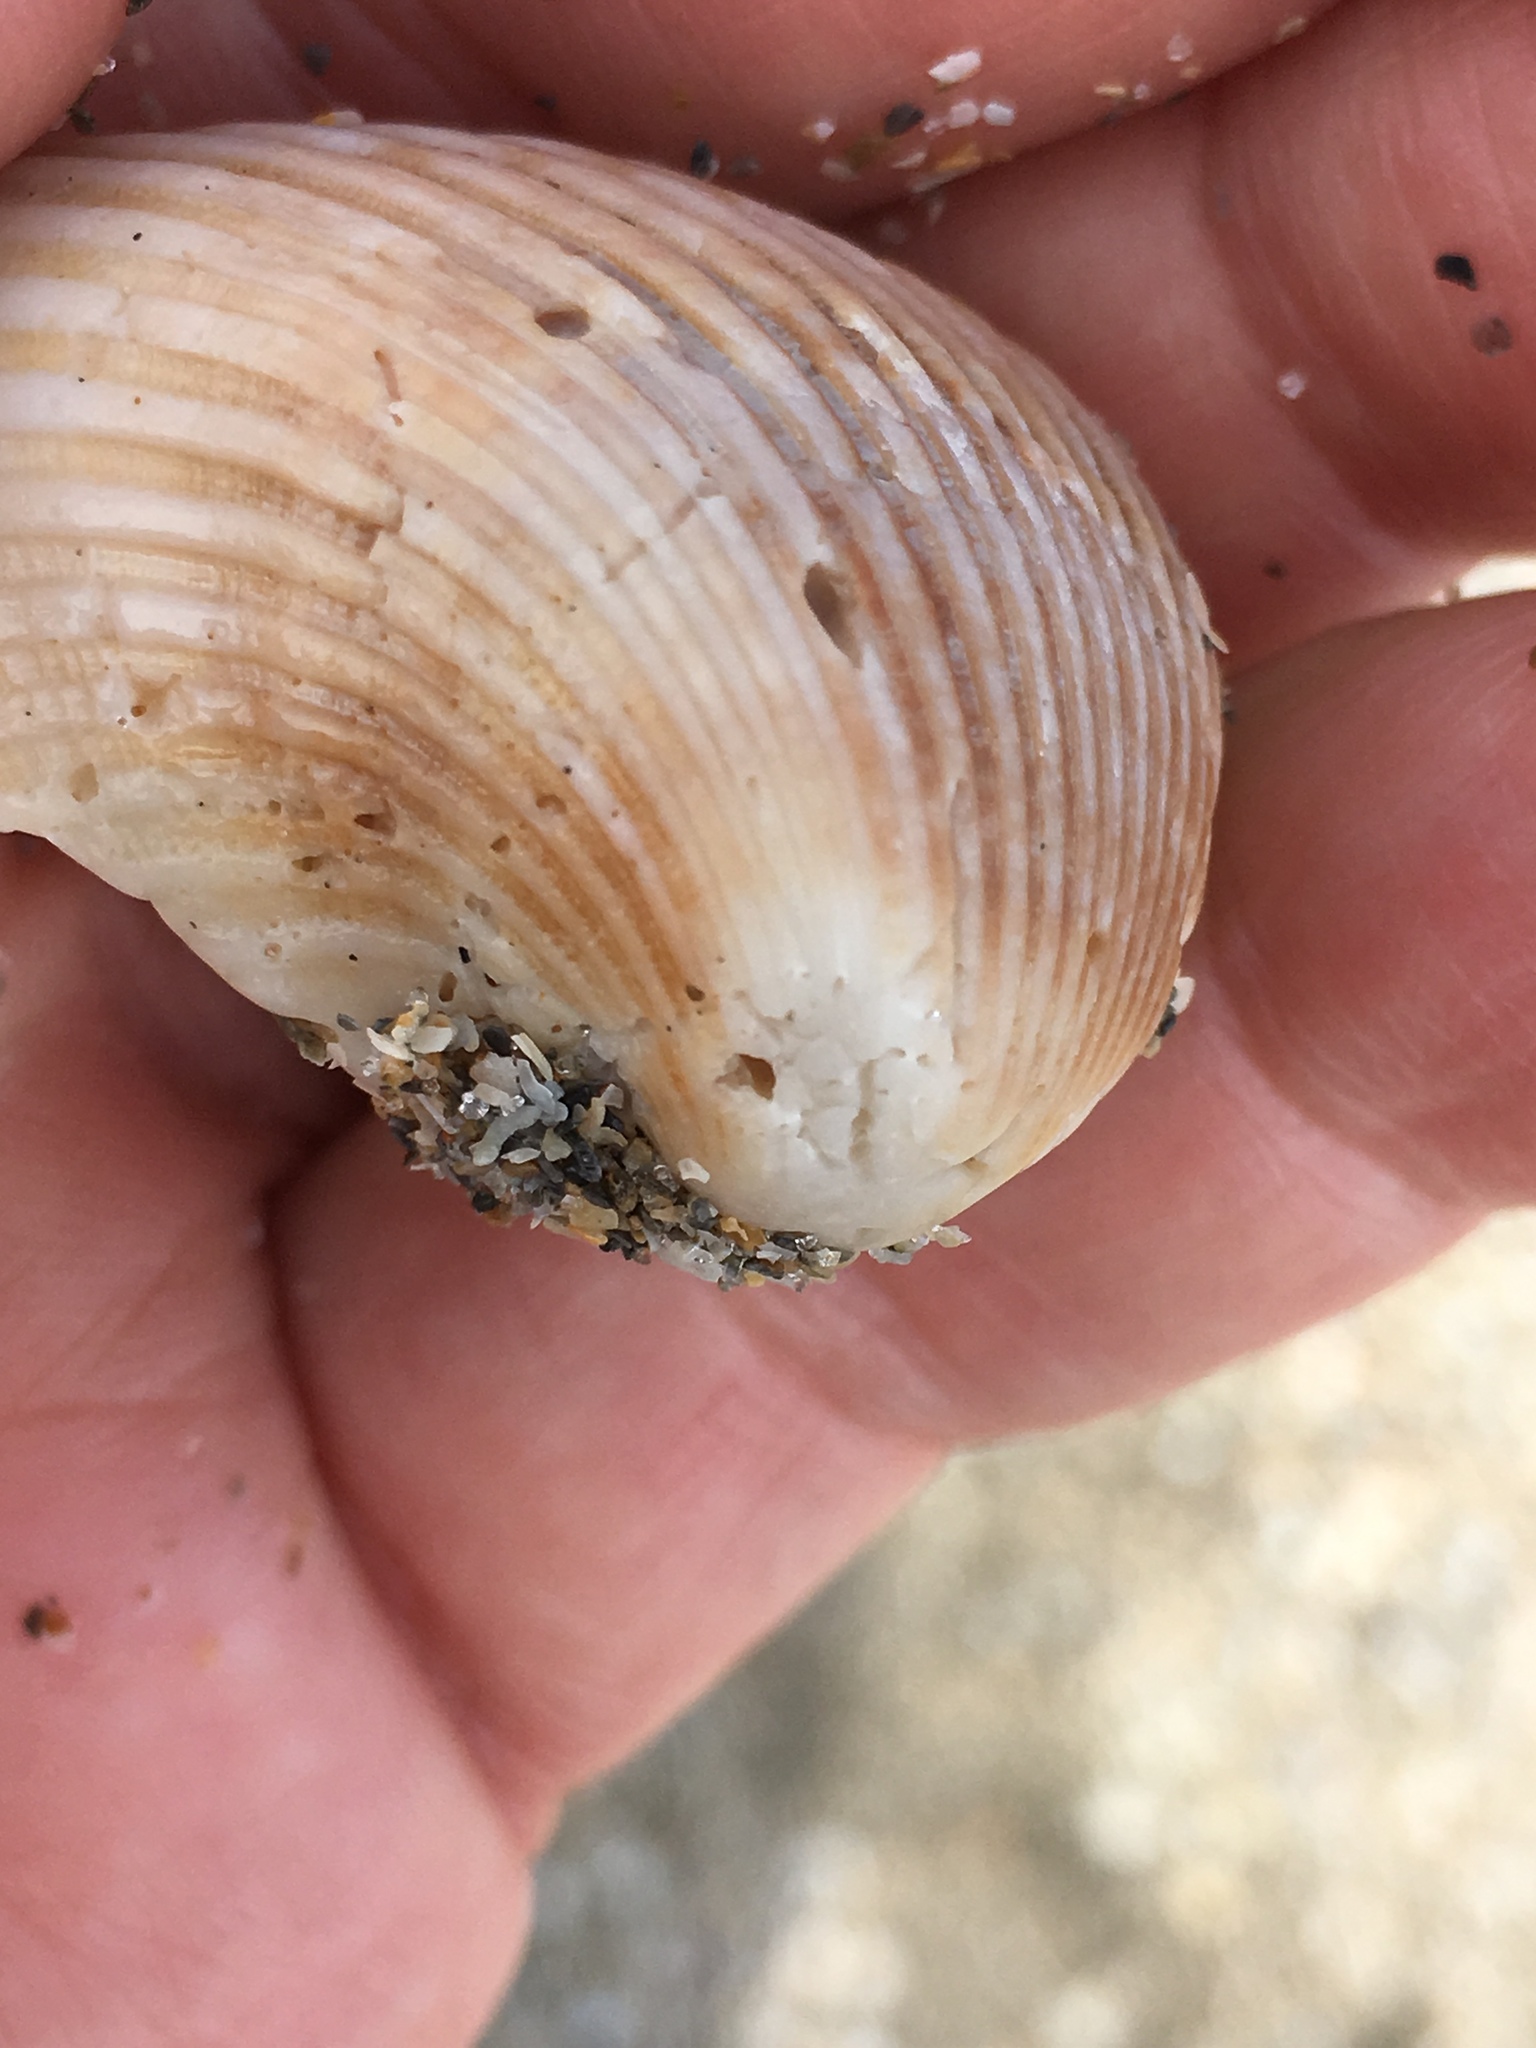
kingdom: Animalia
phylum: Mollusca
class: Bivalvia
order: Arcida
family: Noetiidae
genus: Noetia
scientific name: Noetia ponderosa
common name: Ponderous ark
